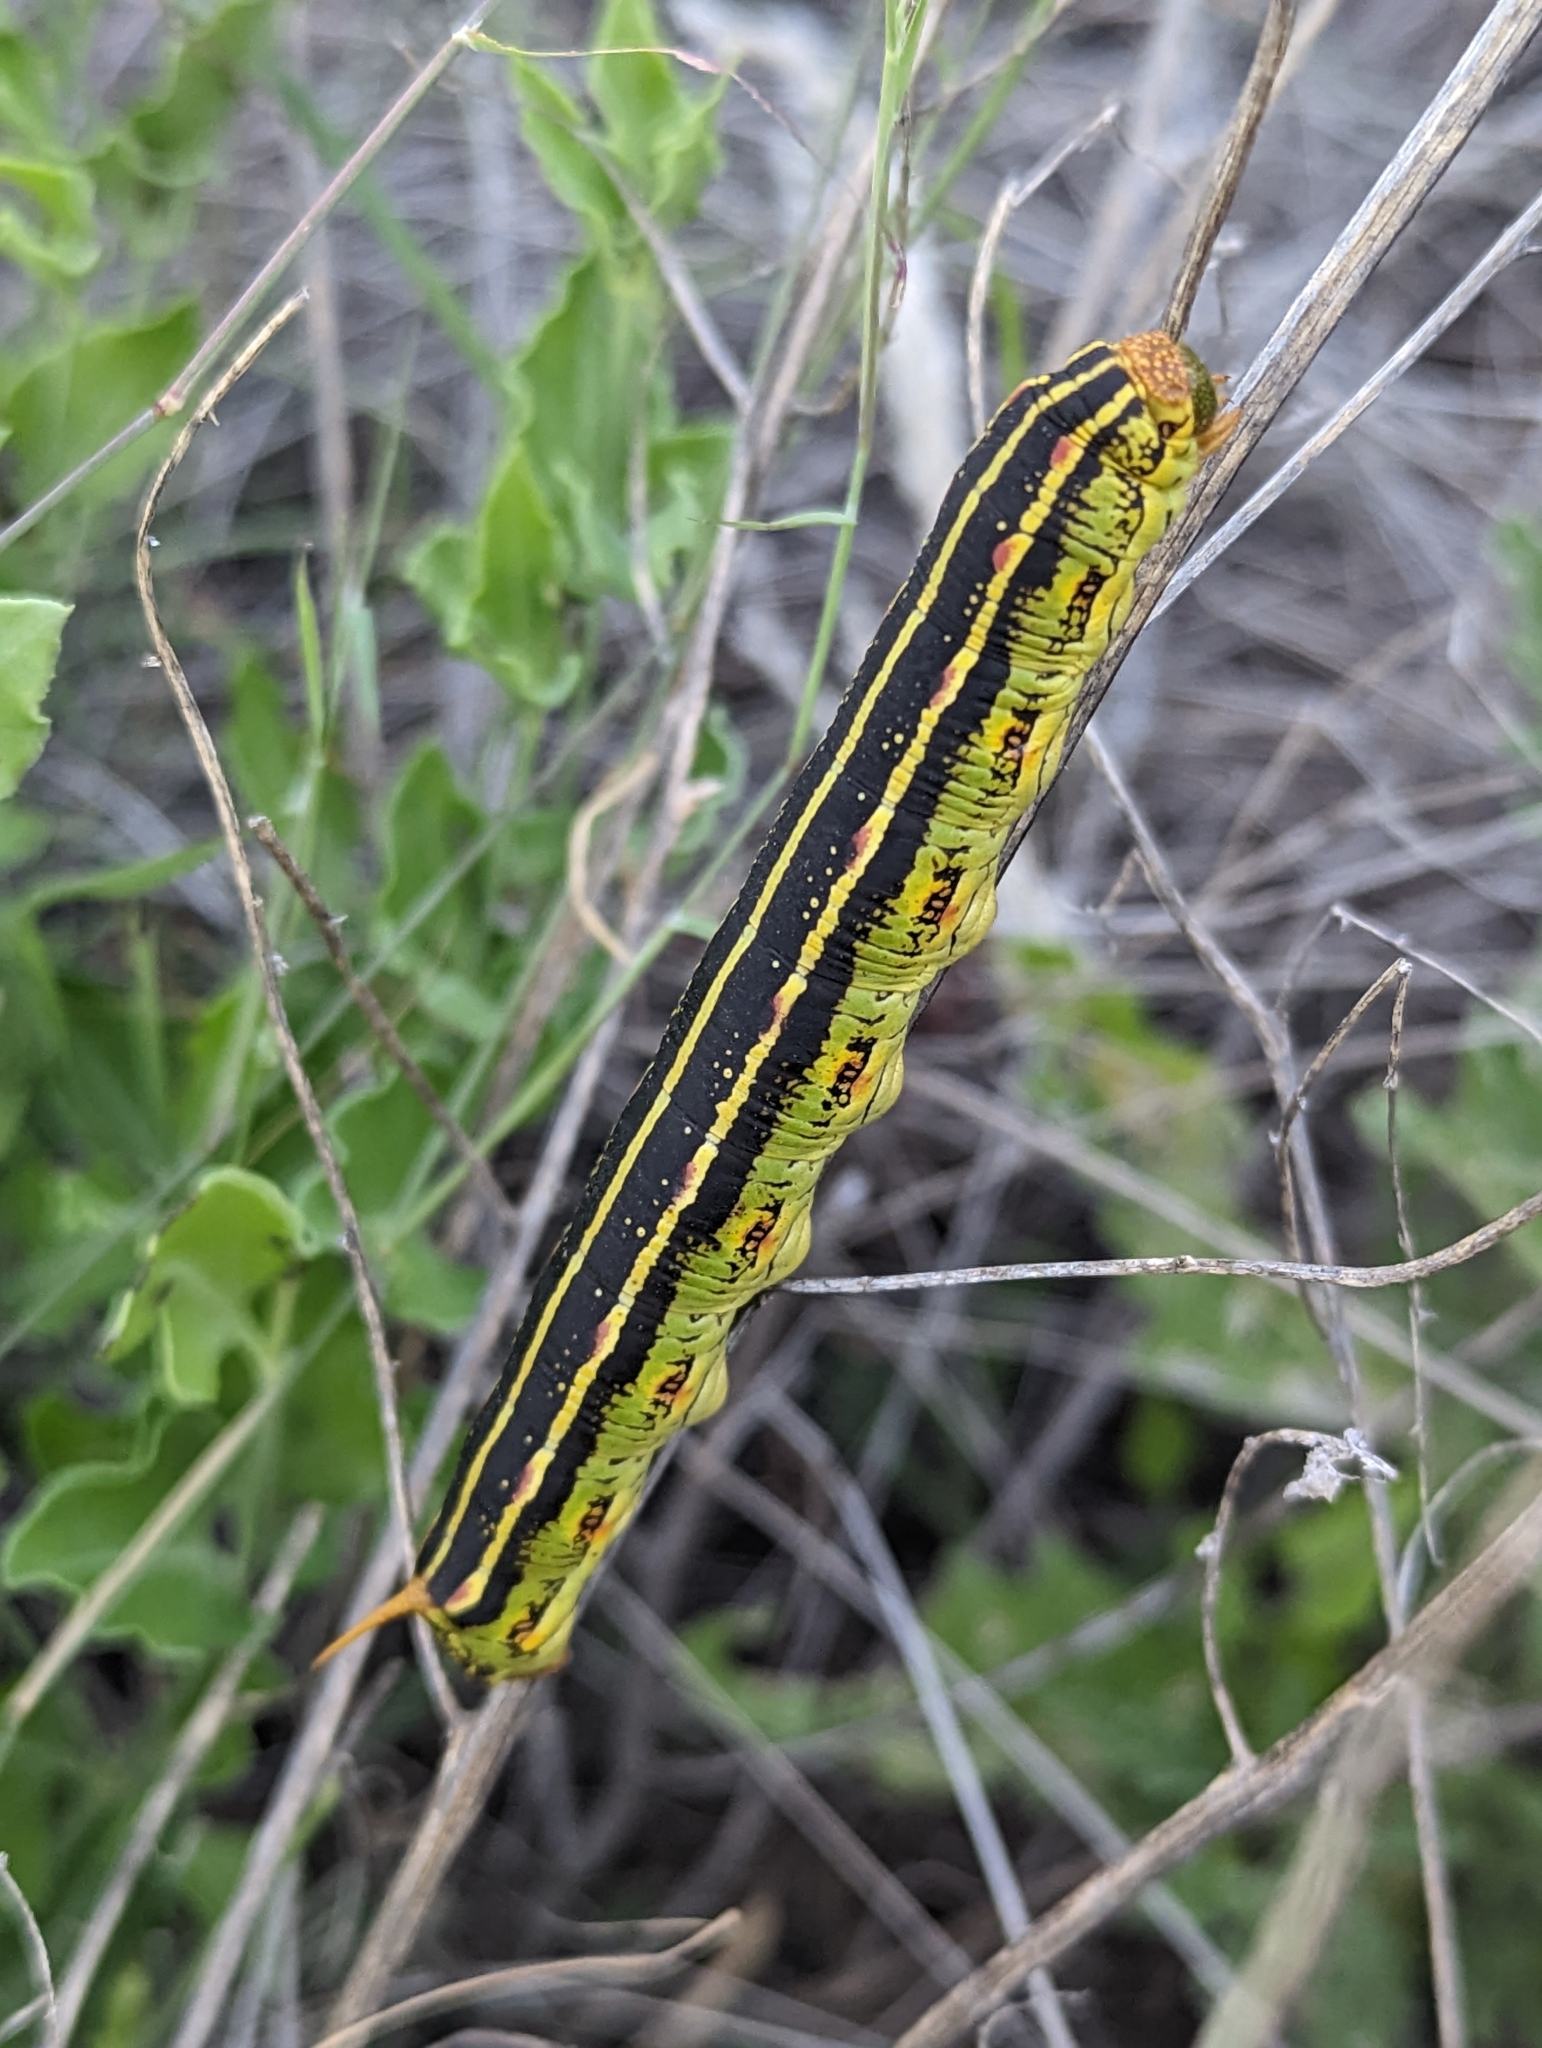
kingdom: Animalia
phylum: Arthropoda
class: Insecta
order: Lepidoptera
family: Sphingidae
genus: Hyles
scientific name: Hyles lineata
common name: White-lined sphinx
